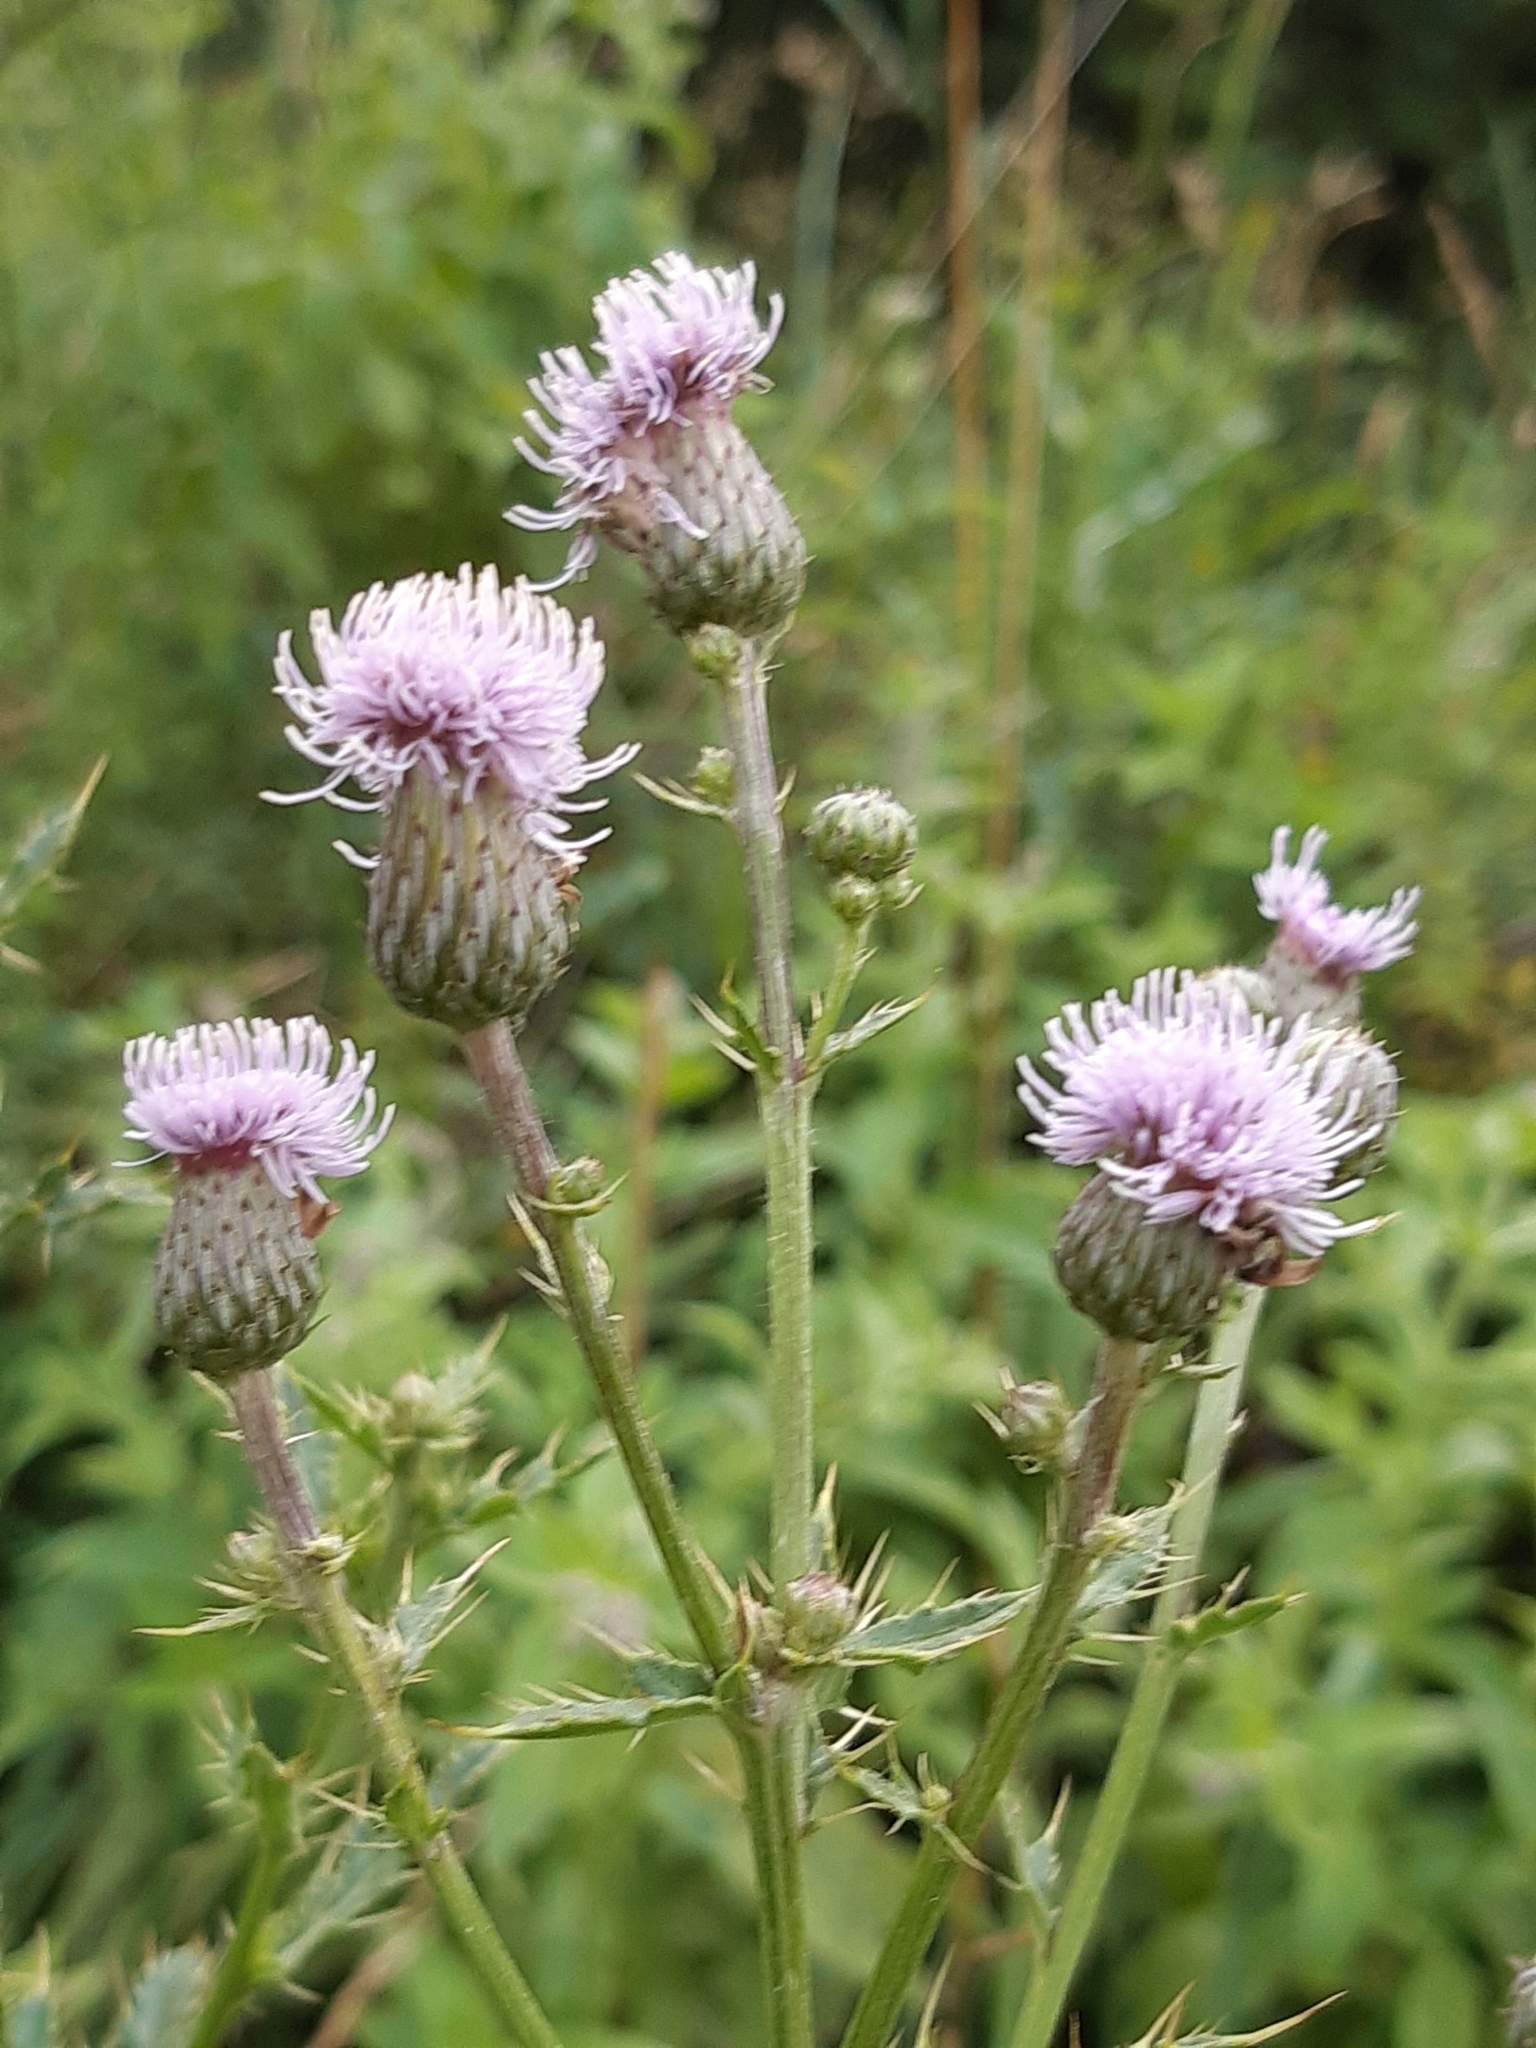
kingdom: Plantae
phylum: Tracheophyta
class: Magnoliopsida
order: Asterales
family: Asteraceae
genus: Cirsium
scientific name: Cirsium arvense
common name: Creeping thistle
